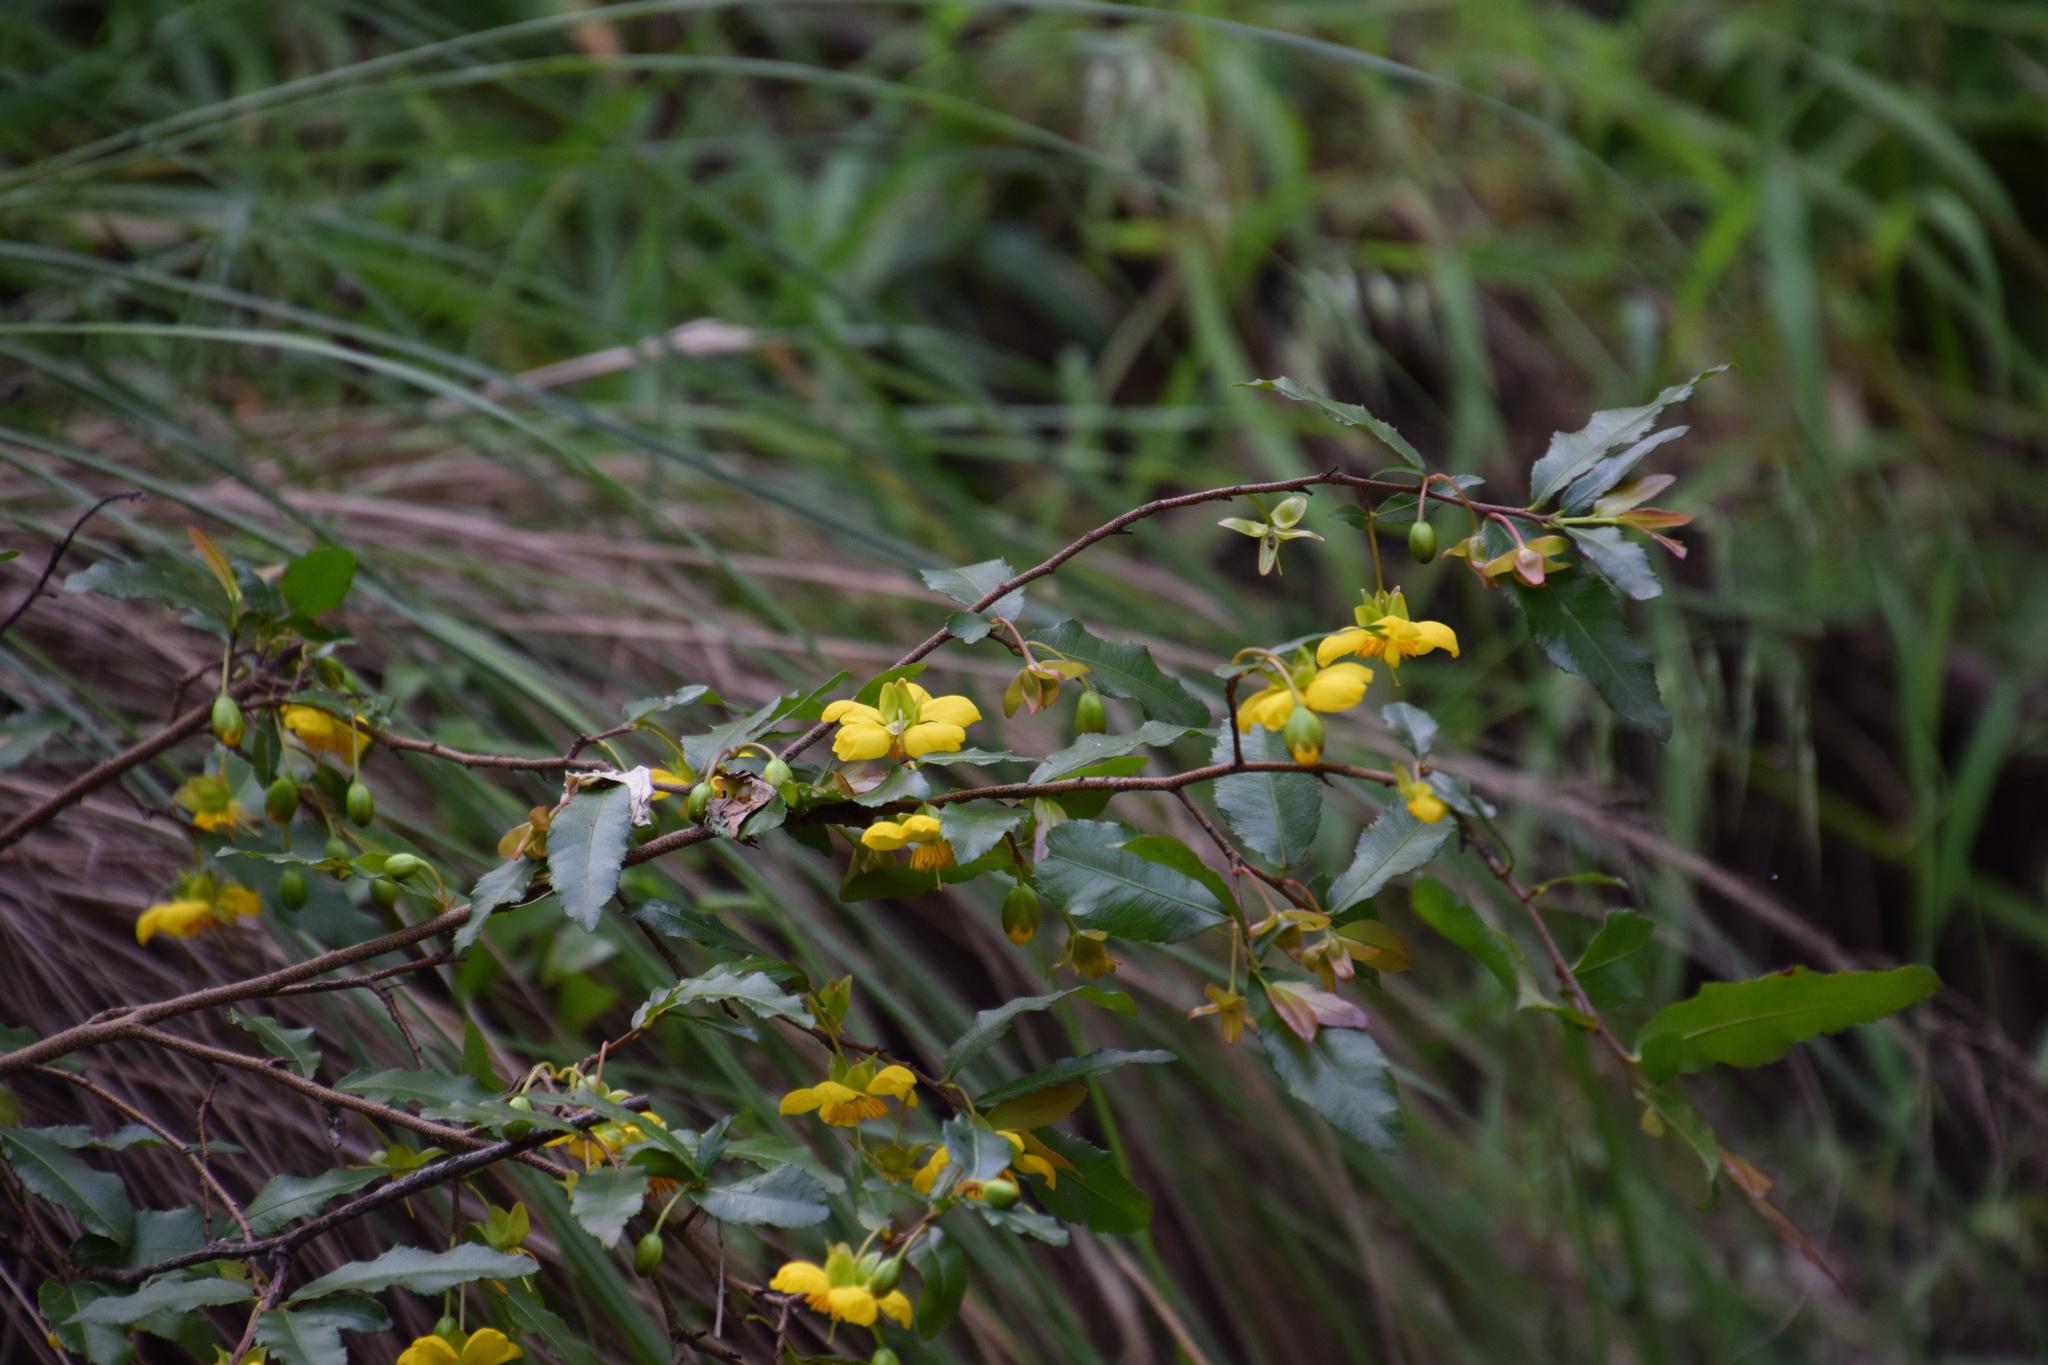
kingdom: Plantae
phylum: Tracheophyta
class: Magnoliopsida
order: Malpighiales
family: Ochnaceae
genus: Ochna
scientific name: Ochna serrulata
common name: Mickey mouse plant
